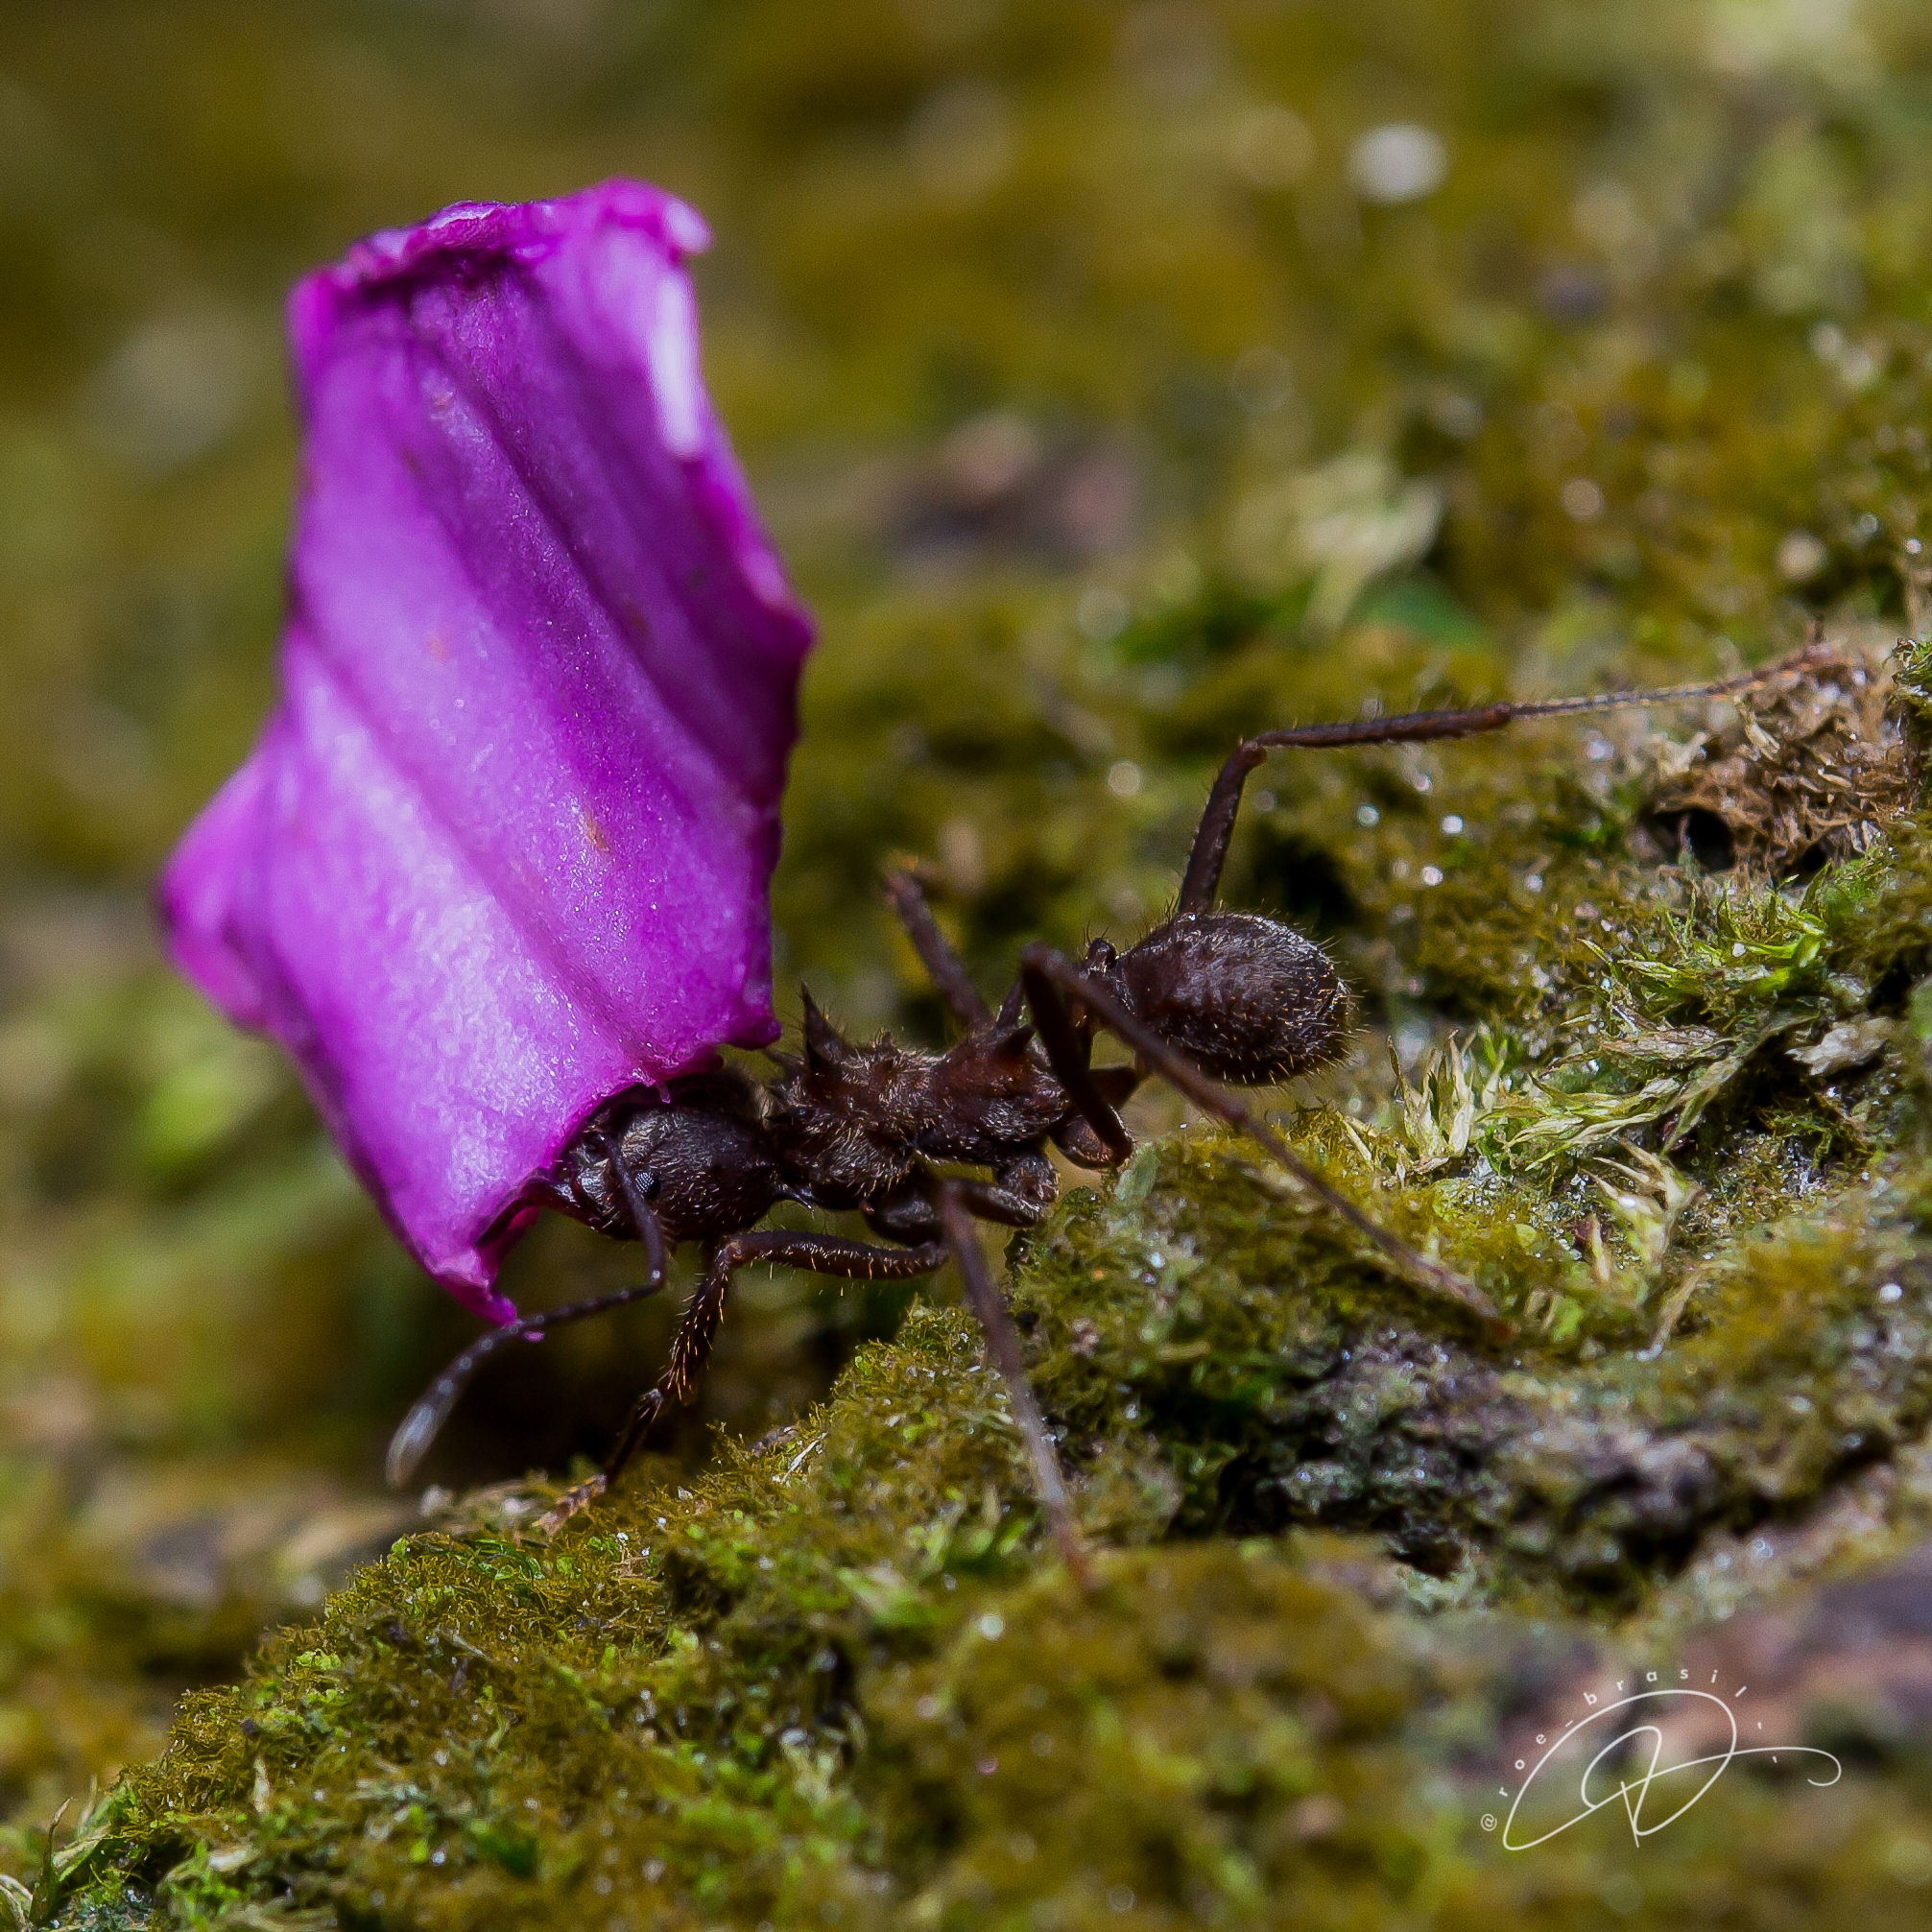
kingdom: Animalia
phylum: Arthropoda
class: Insecta
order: Hymenoptera
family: Formicidae
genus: Acromyrmex
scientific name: Acromyrmex disciger
